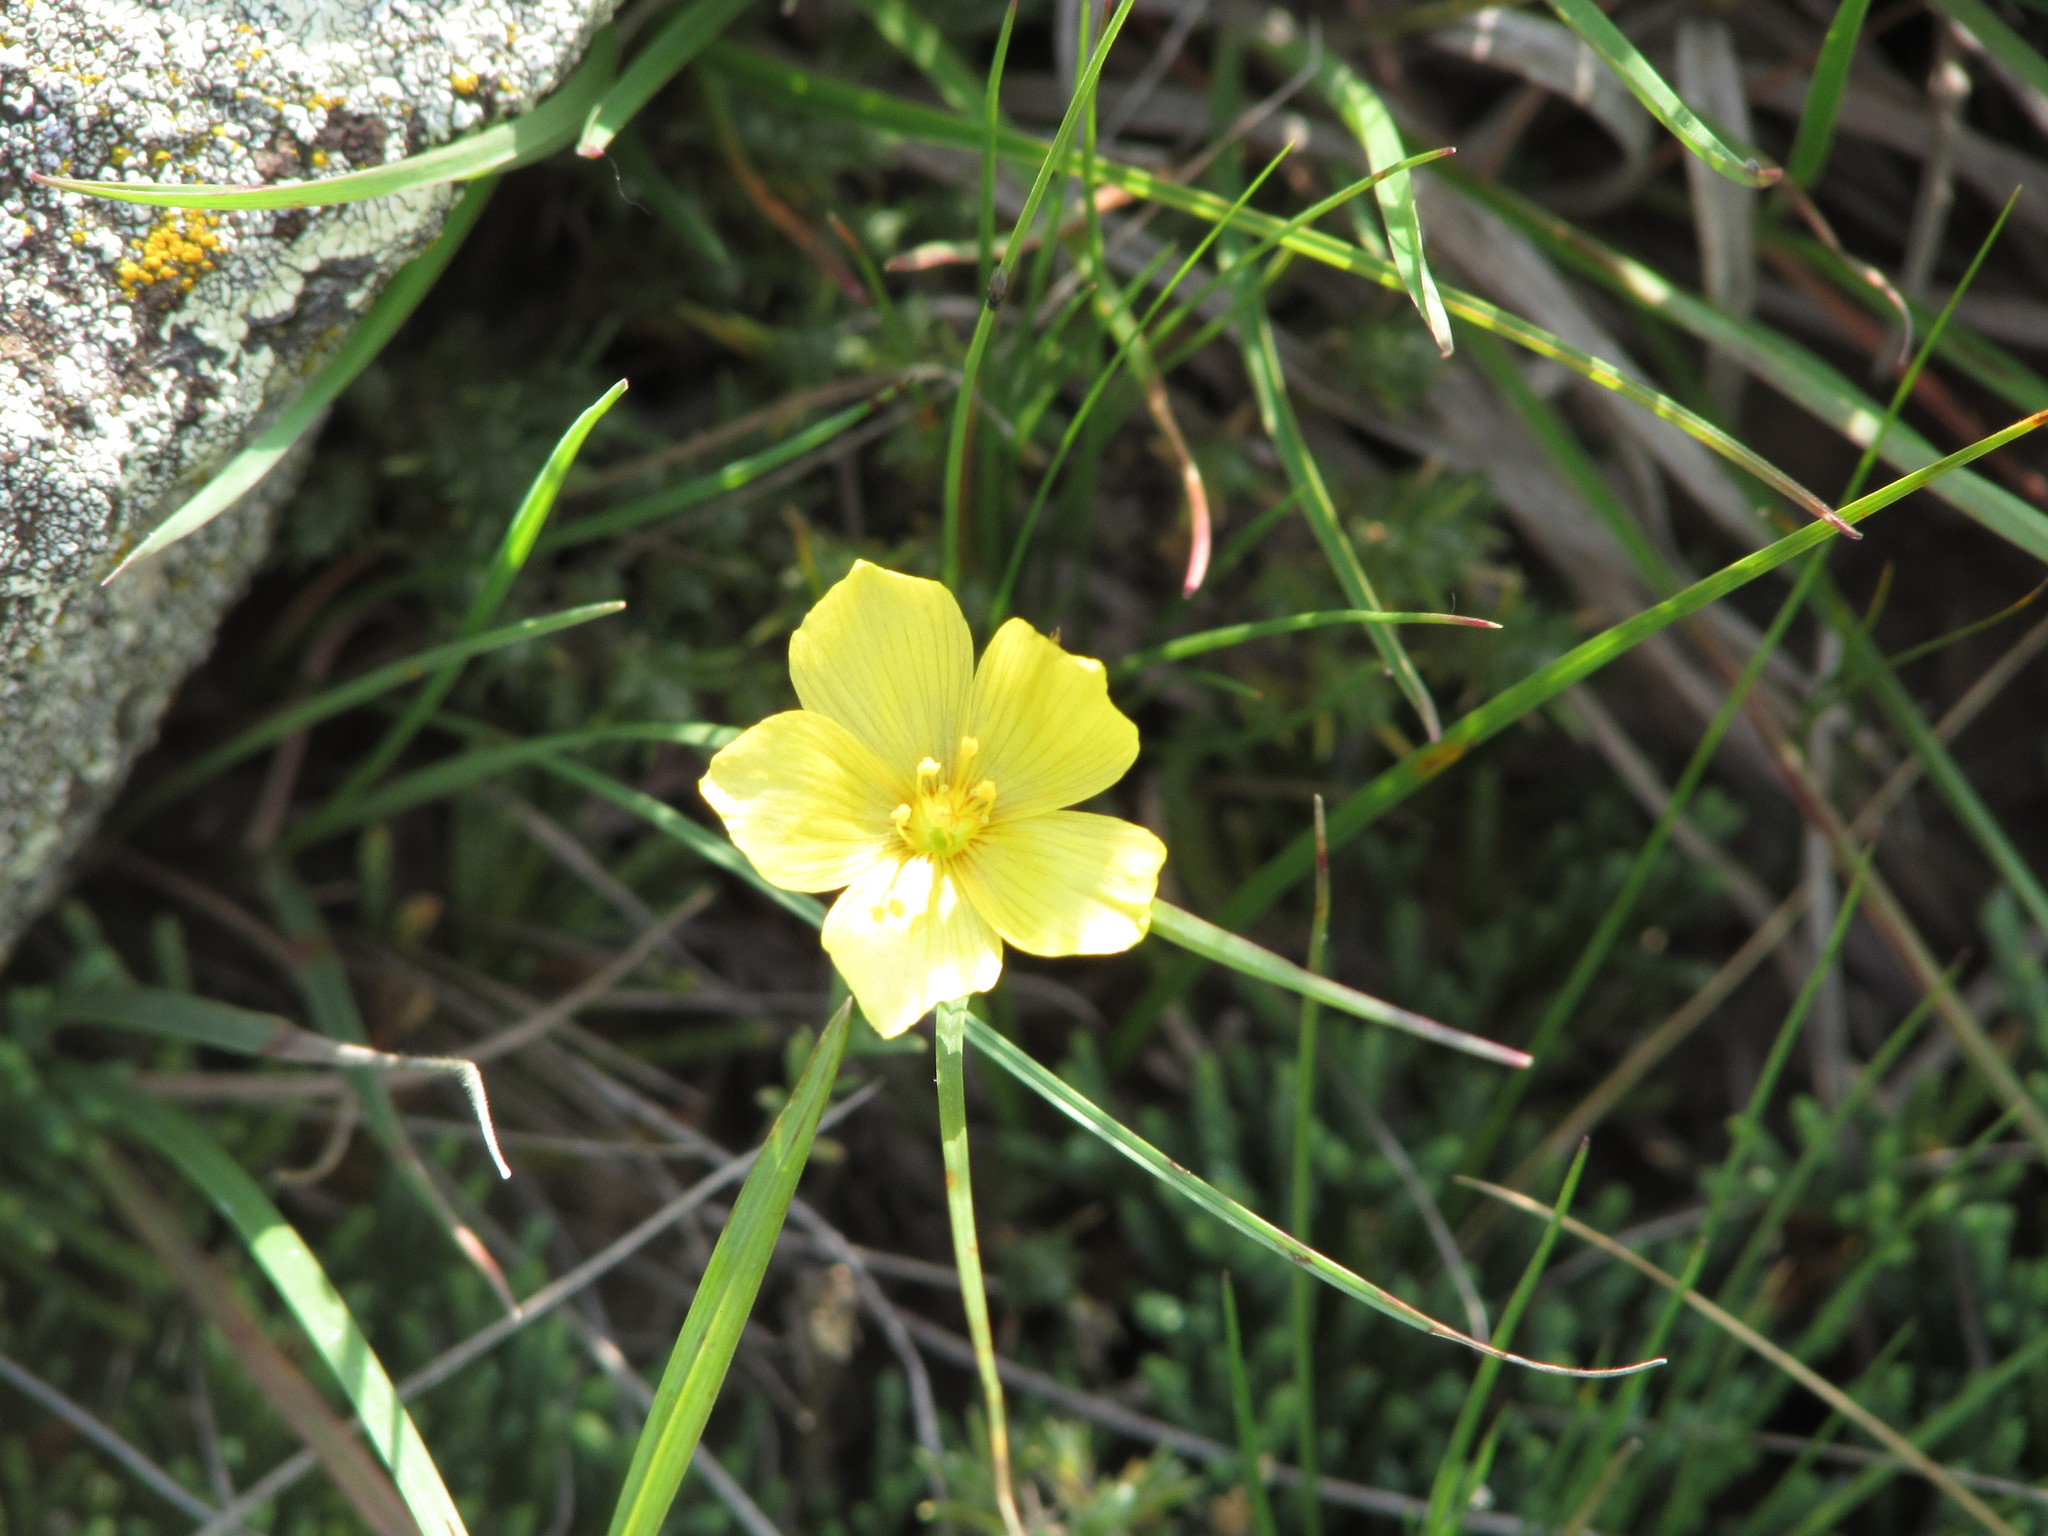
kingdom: Plantae
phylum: Tracheophyta
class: Magnoliopsida
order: Malpighiales
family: Linaceae
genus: Linum
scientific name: Linum rigidum
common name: Stiff-stem flax
